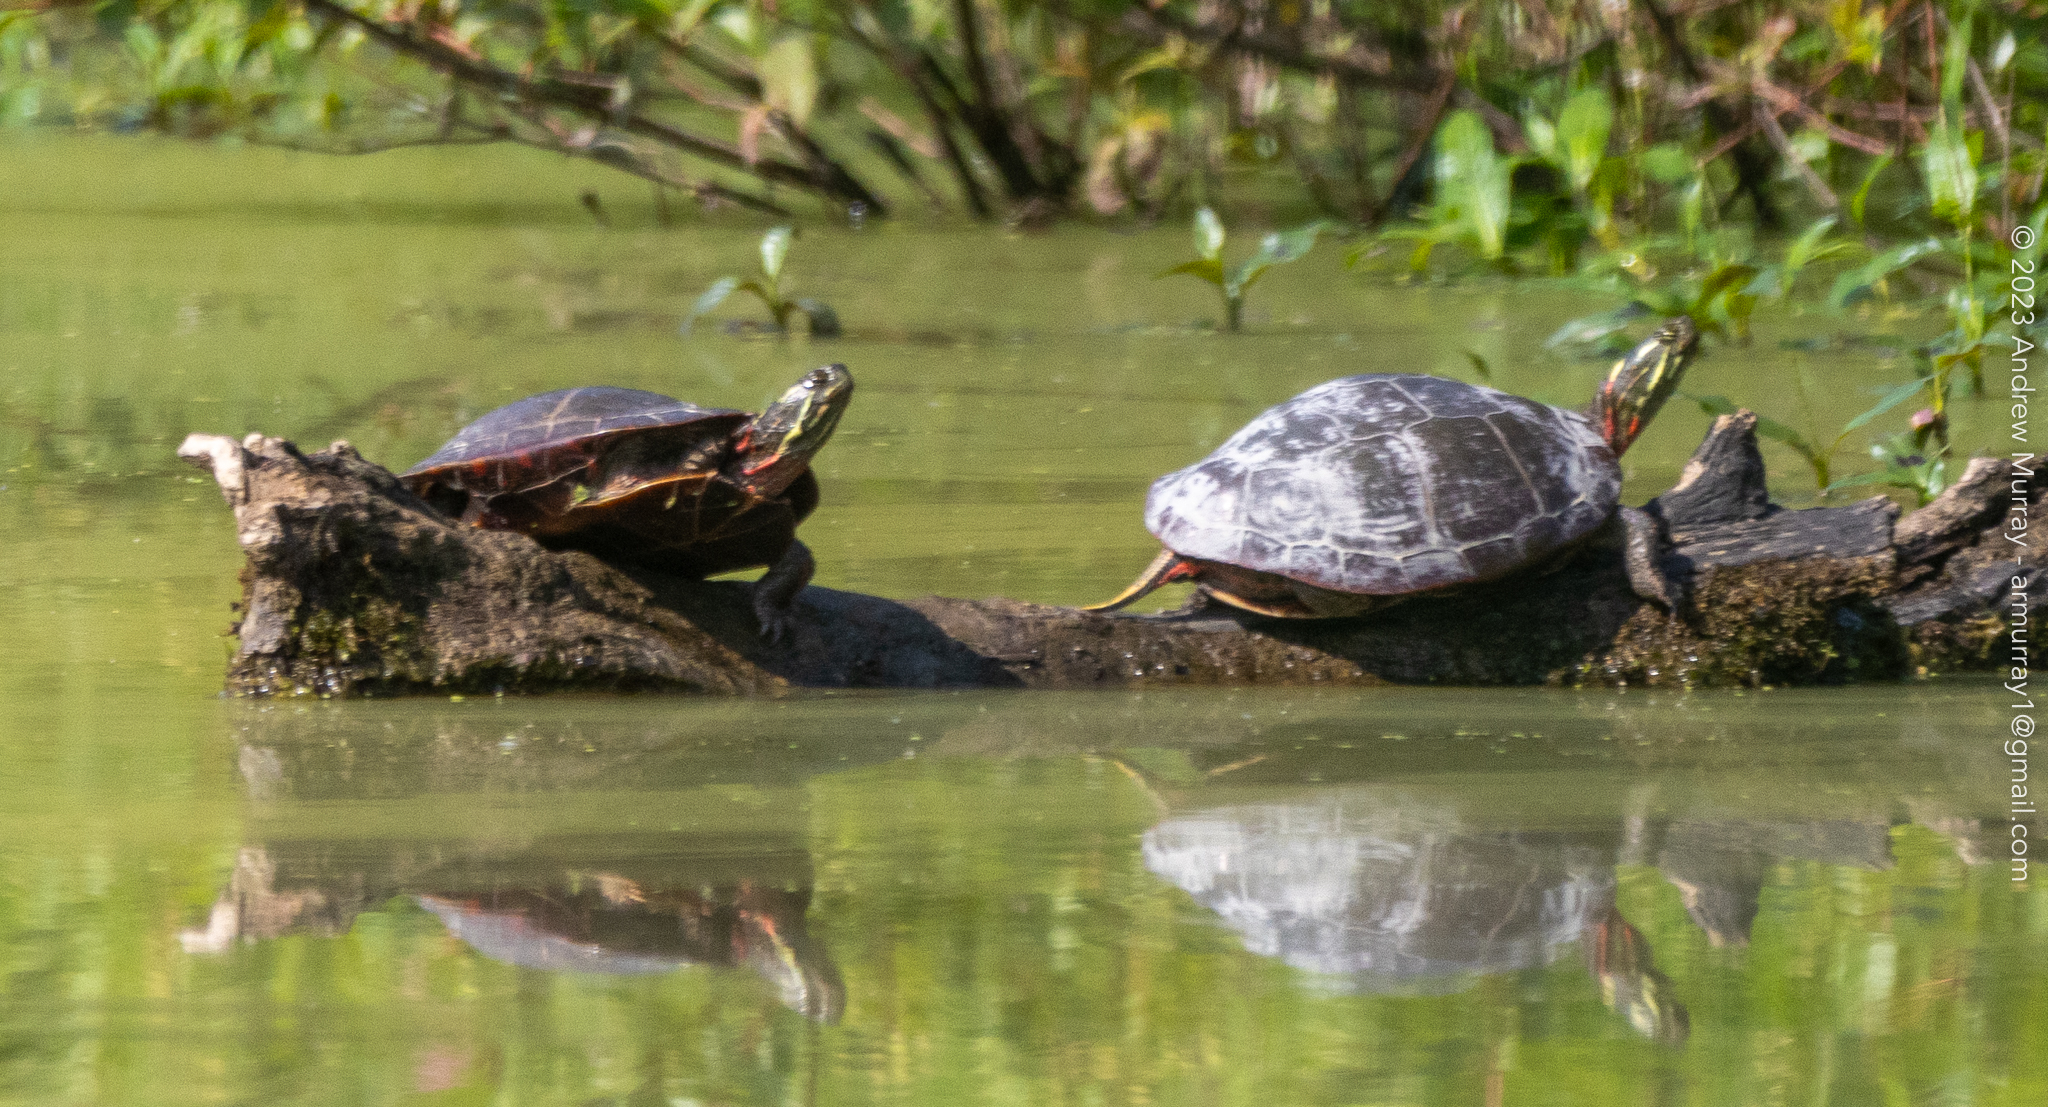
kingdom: Animalia
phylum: Chordata
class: Testudines
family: Emydidae
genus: Chrysemys
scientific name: Chrysemys picta
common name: Painted turtle
